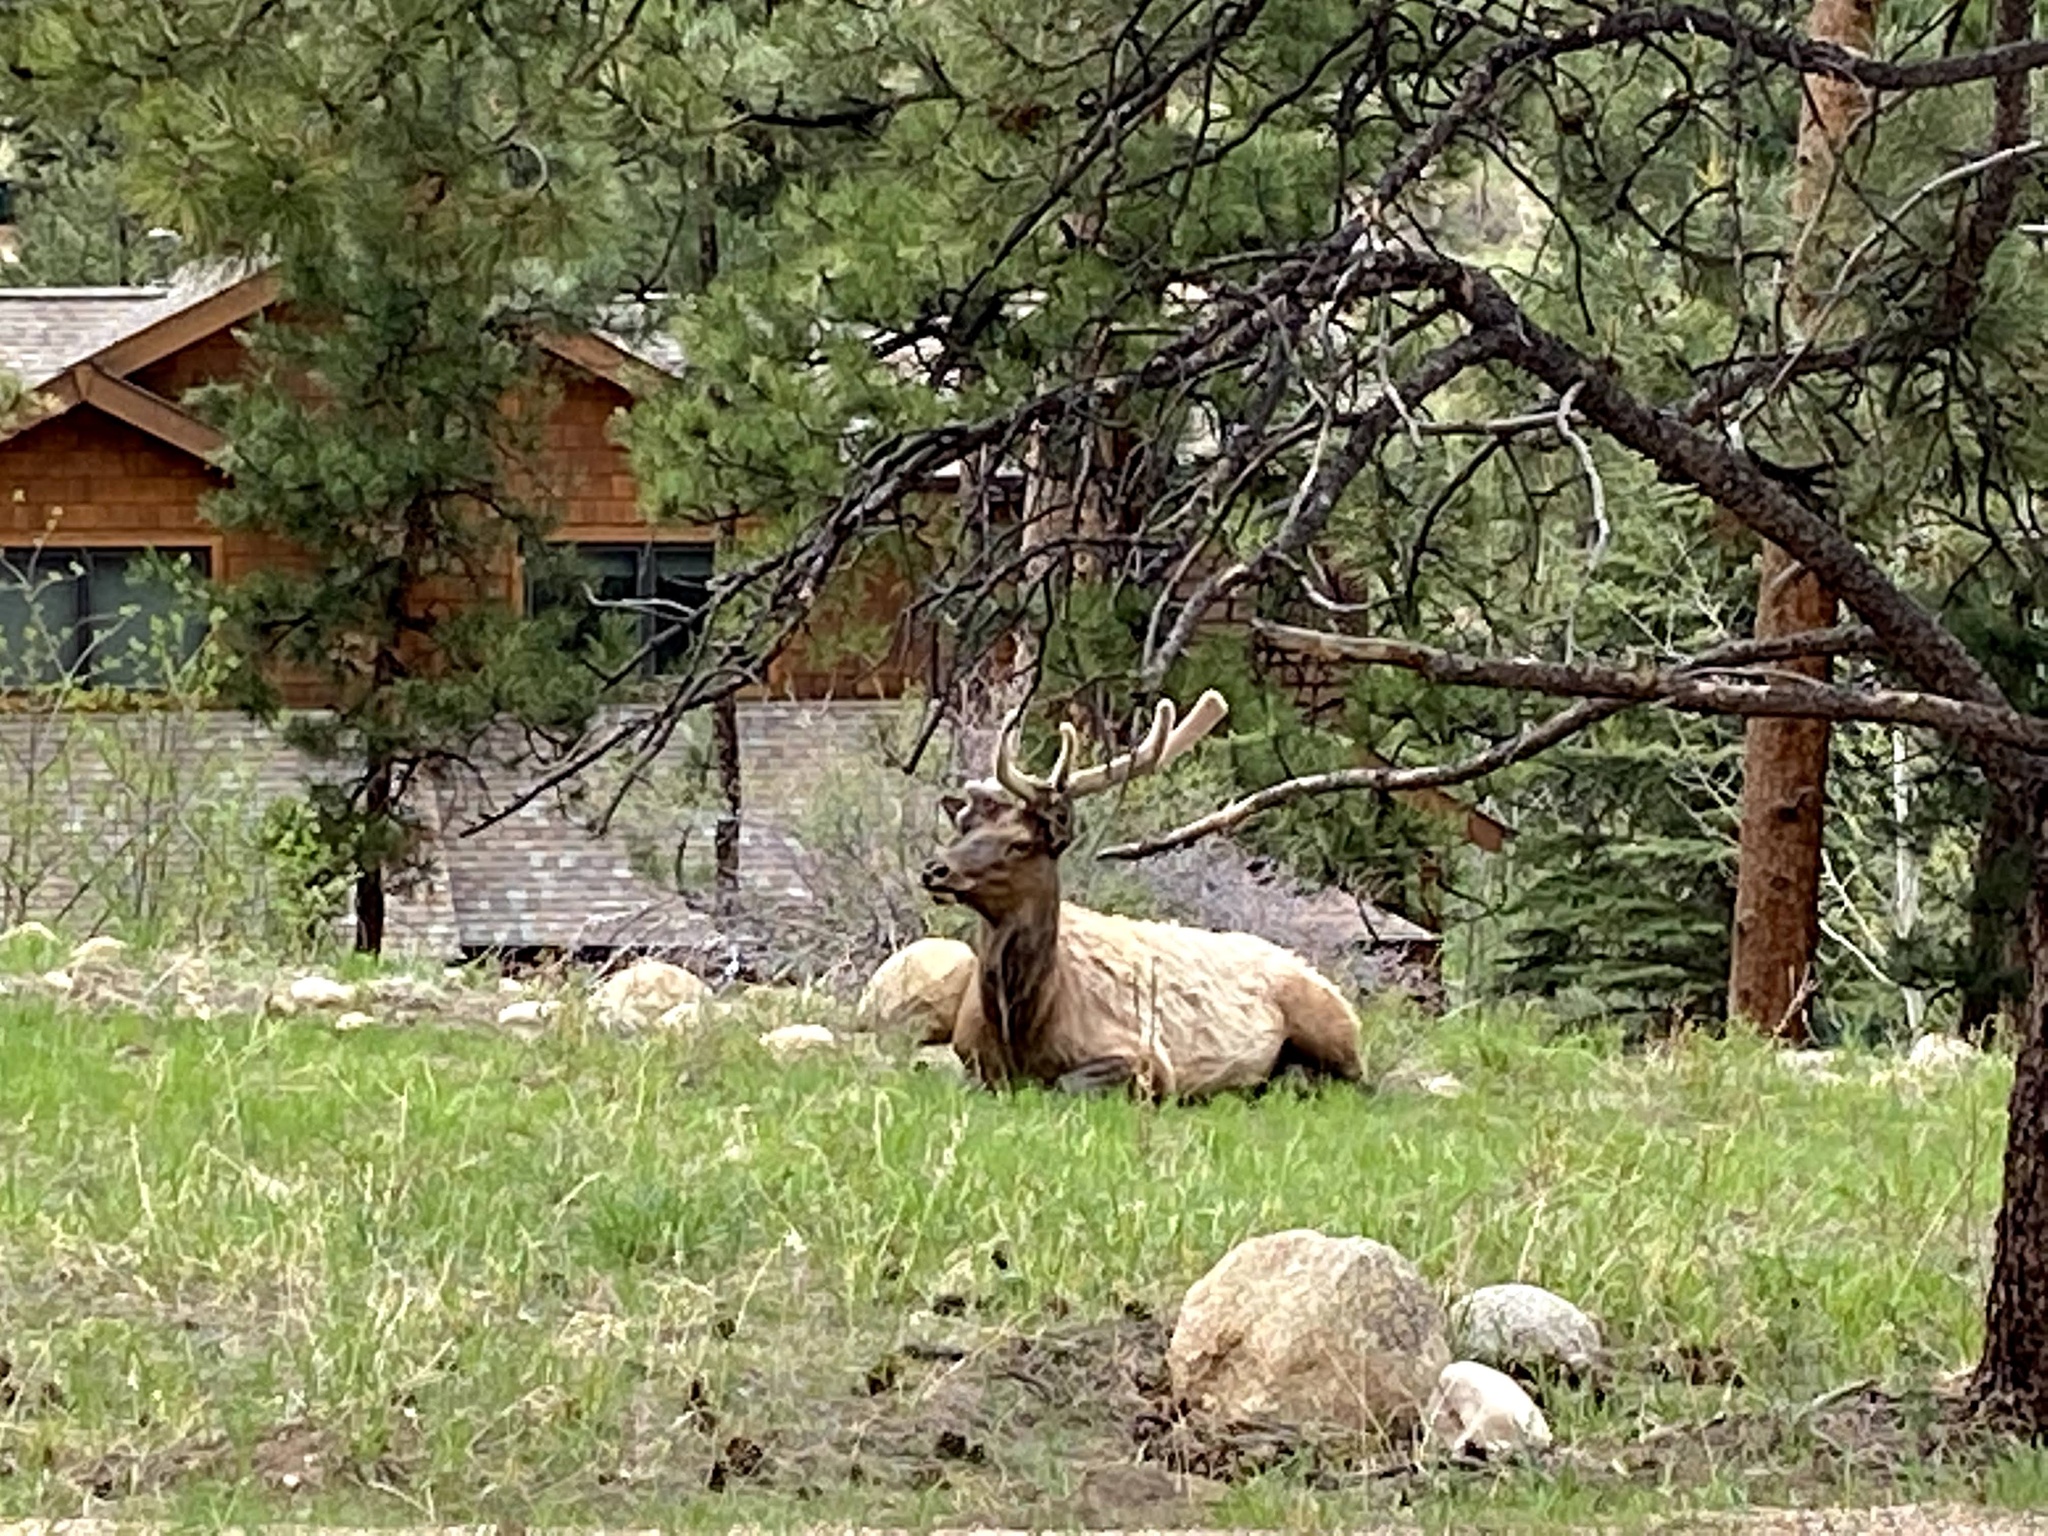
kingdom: Animalia
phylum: Chordata
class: Mammalia
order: Artiodactyla
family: Cervidae
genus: Cervus
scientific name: Cervus elaphus
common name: Red deer
